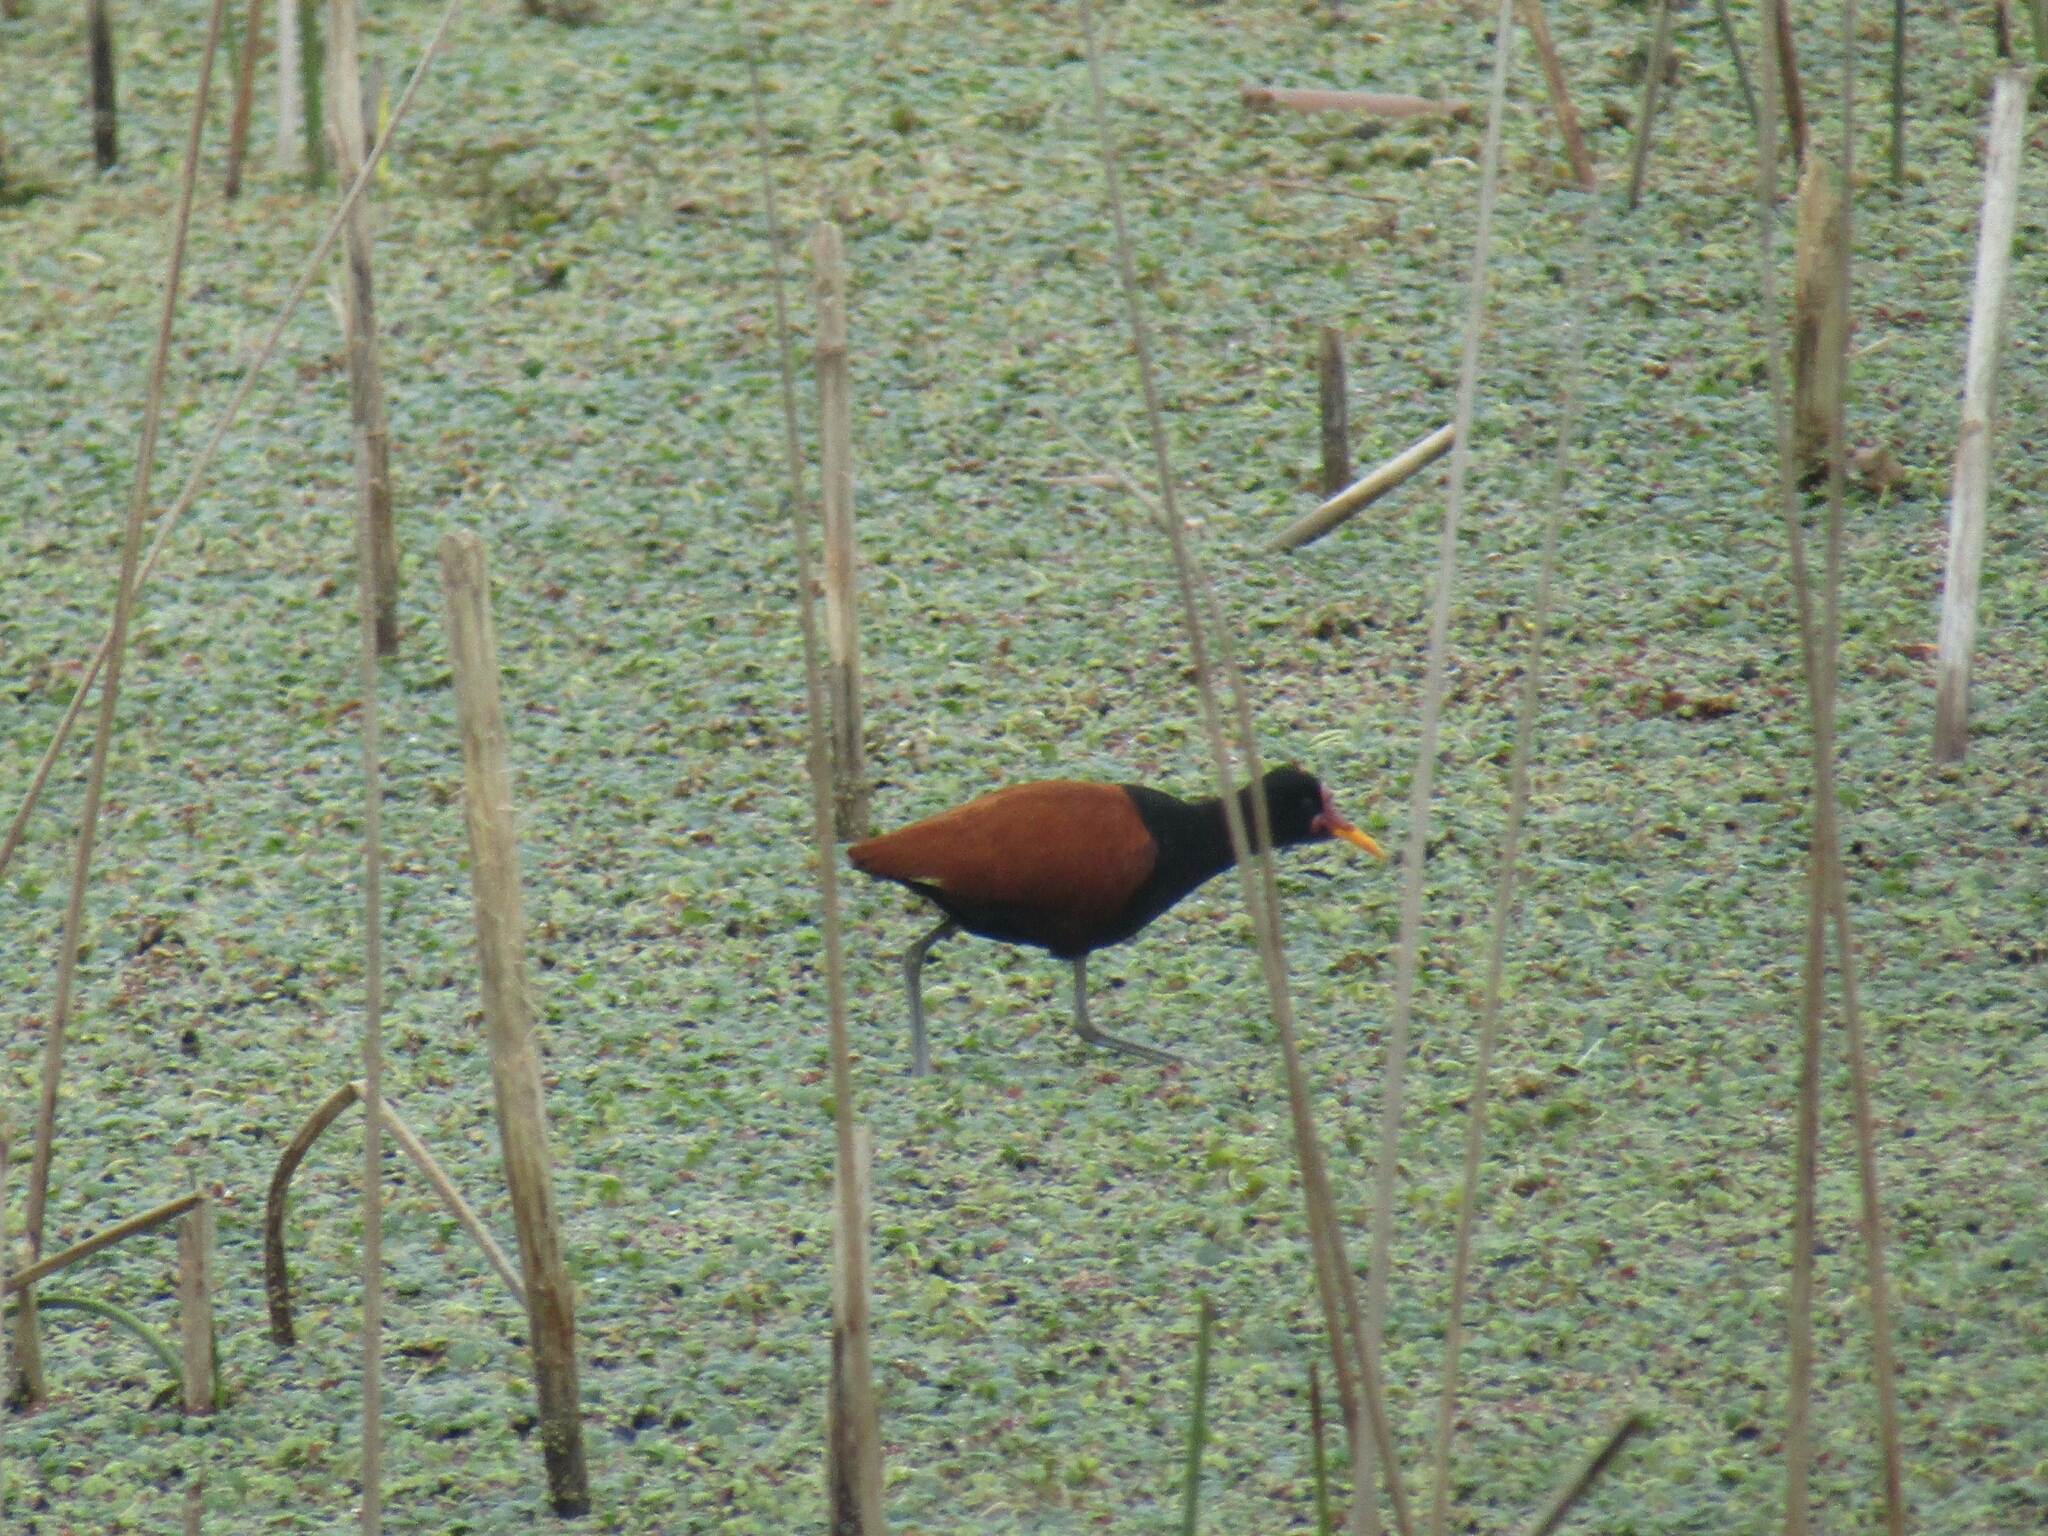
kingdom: Animalia
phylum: Chordata
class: Aves
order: Charadriiformes
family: Jacanidae
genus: Jacana
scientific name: Jacana jacana
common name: Wattled jacana
